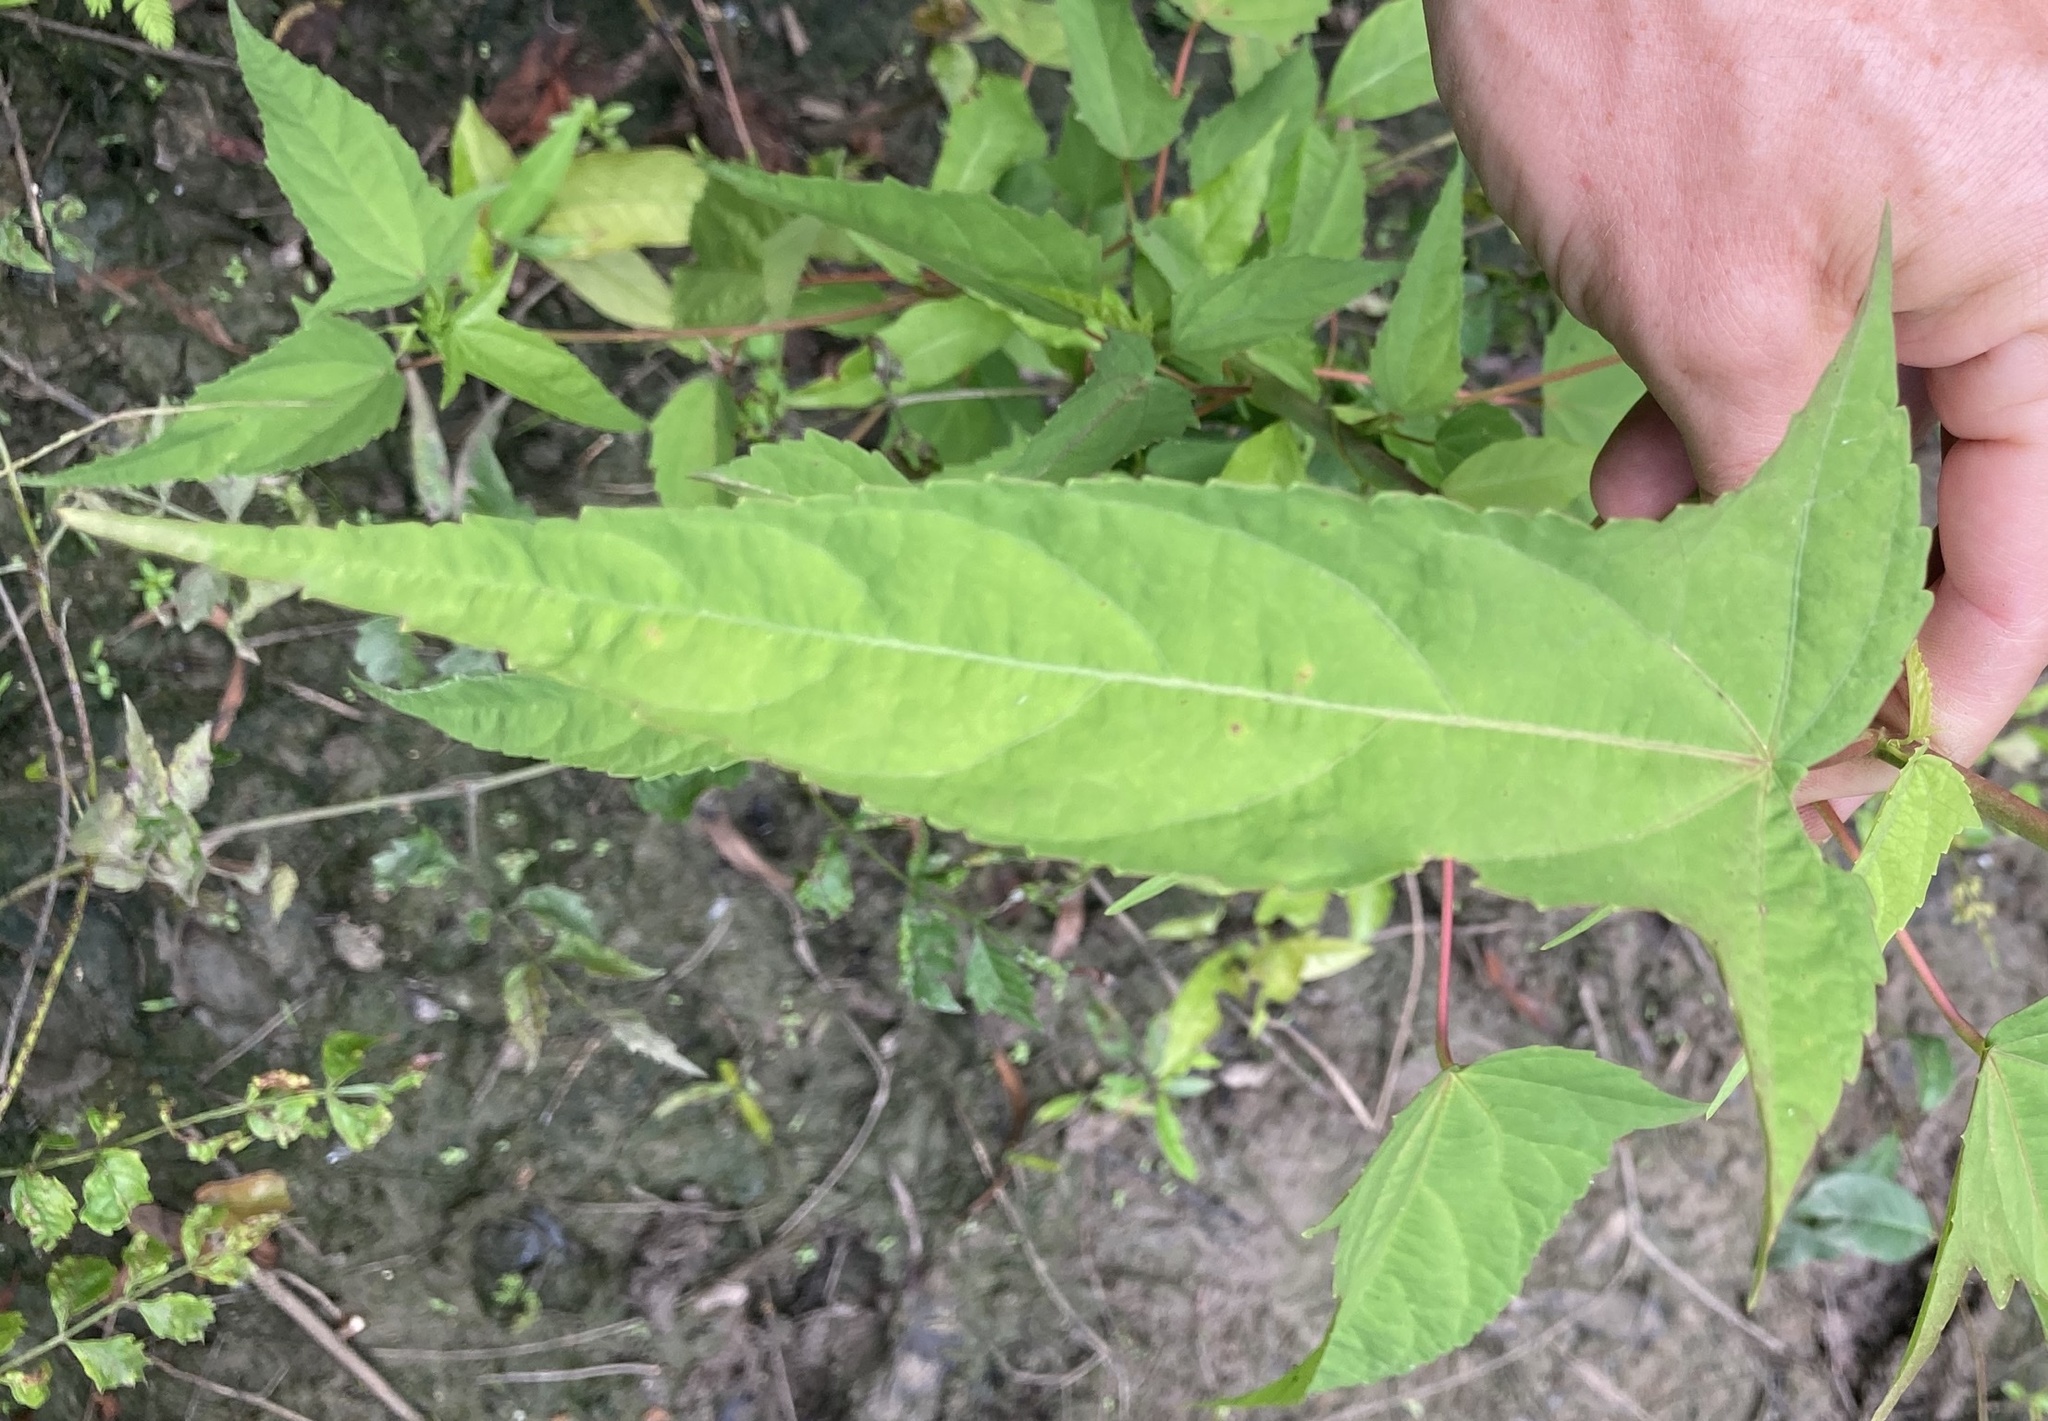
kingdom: Plantae
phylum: Tracheophyta
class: Magnoliopsida
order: Malvales
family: Malvaceae
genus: Hibiscus
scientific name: Hibiscus laevis
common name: Scarlet rose-mallow
